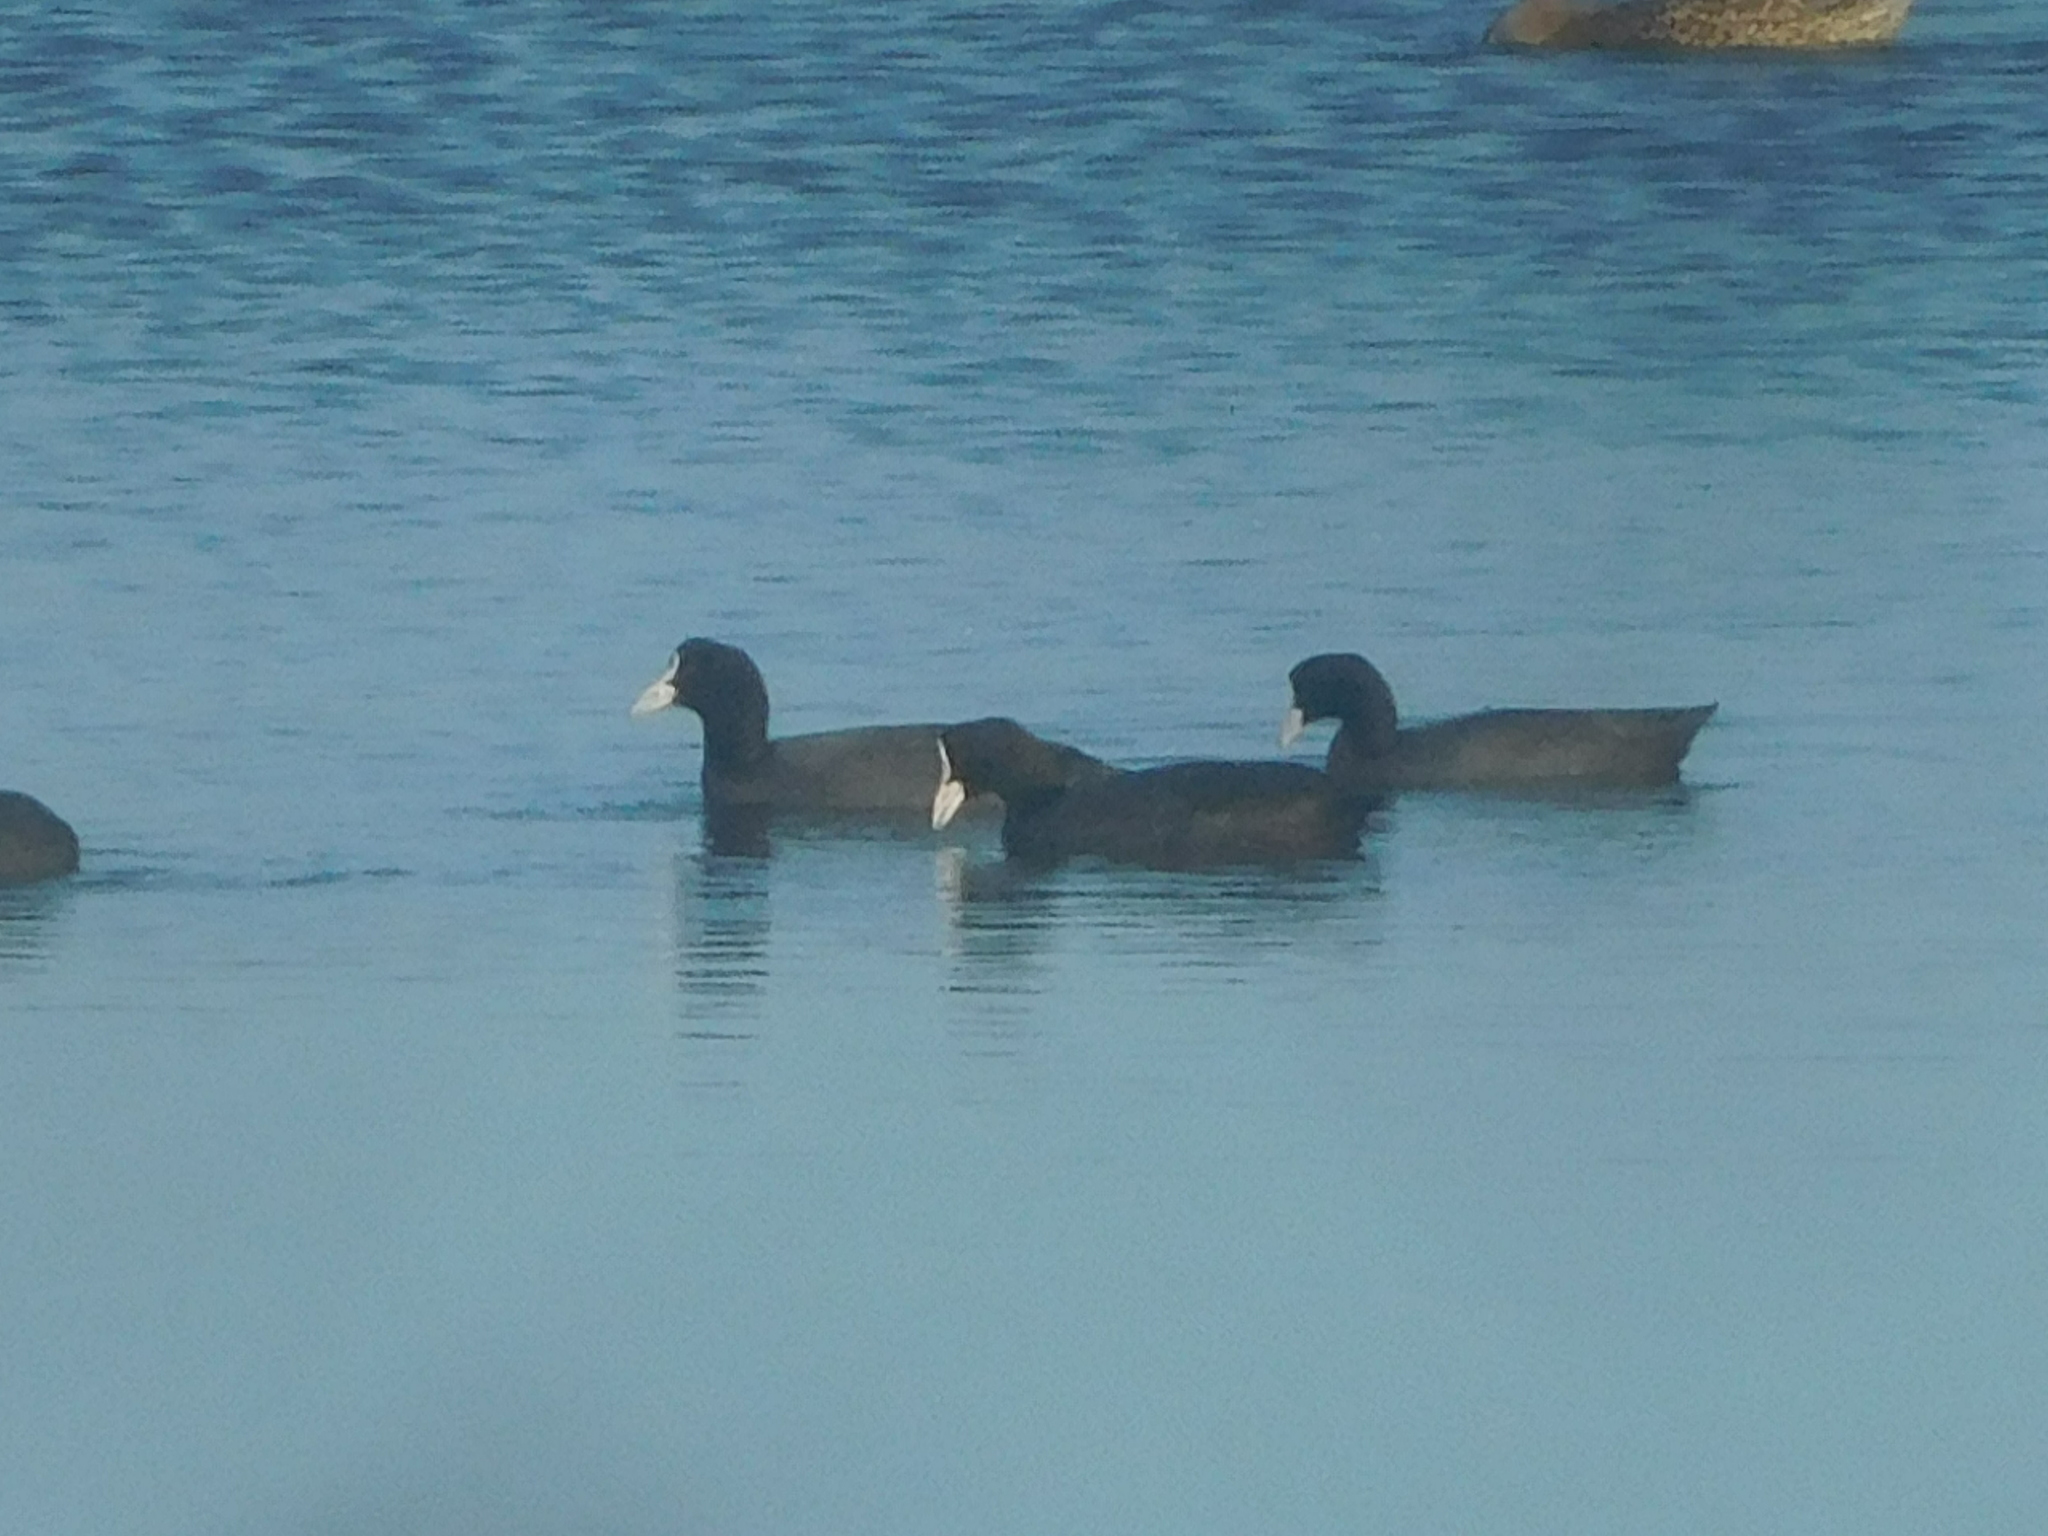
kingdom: Animalia
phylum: Chordata
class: Aves
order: Gruiformes
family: Rallidae
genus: Fulica
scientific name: Fulica atra
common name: Eurasian coot
